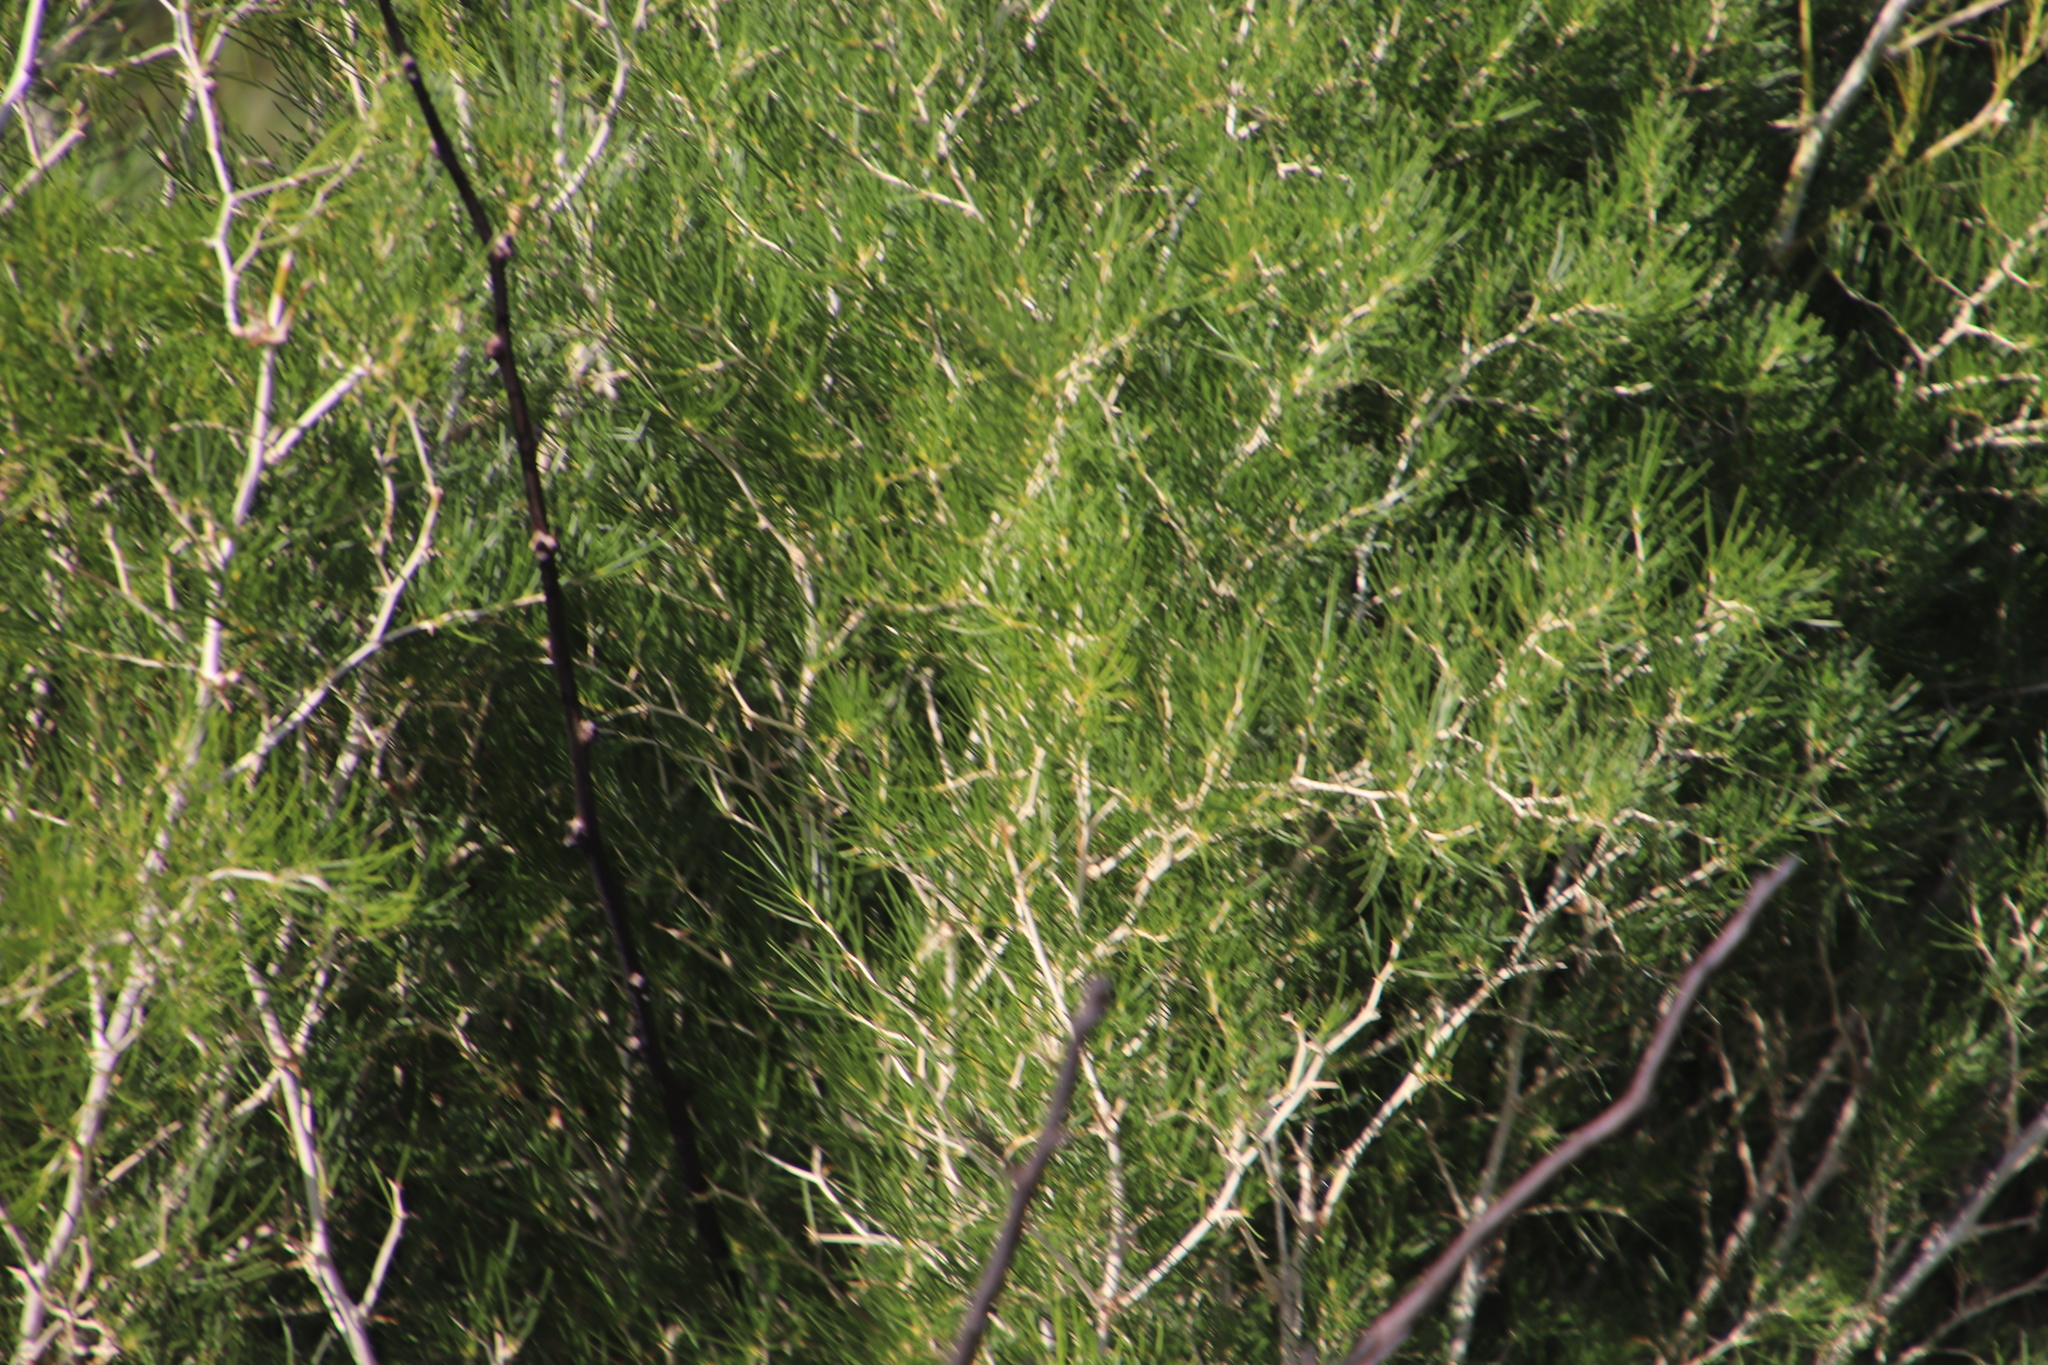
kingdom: Plantae
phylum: Tracheophyta
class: Liliopsida
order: Asparagales
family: Asparagaceae
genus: Asparagus
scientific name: Asparagus lignosus
